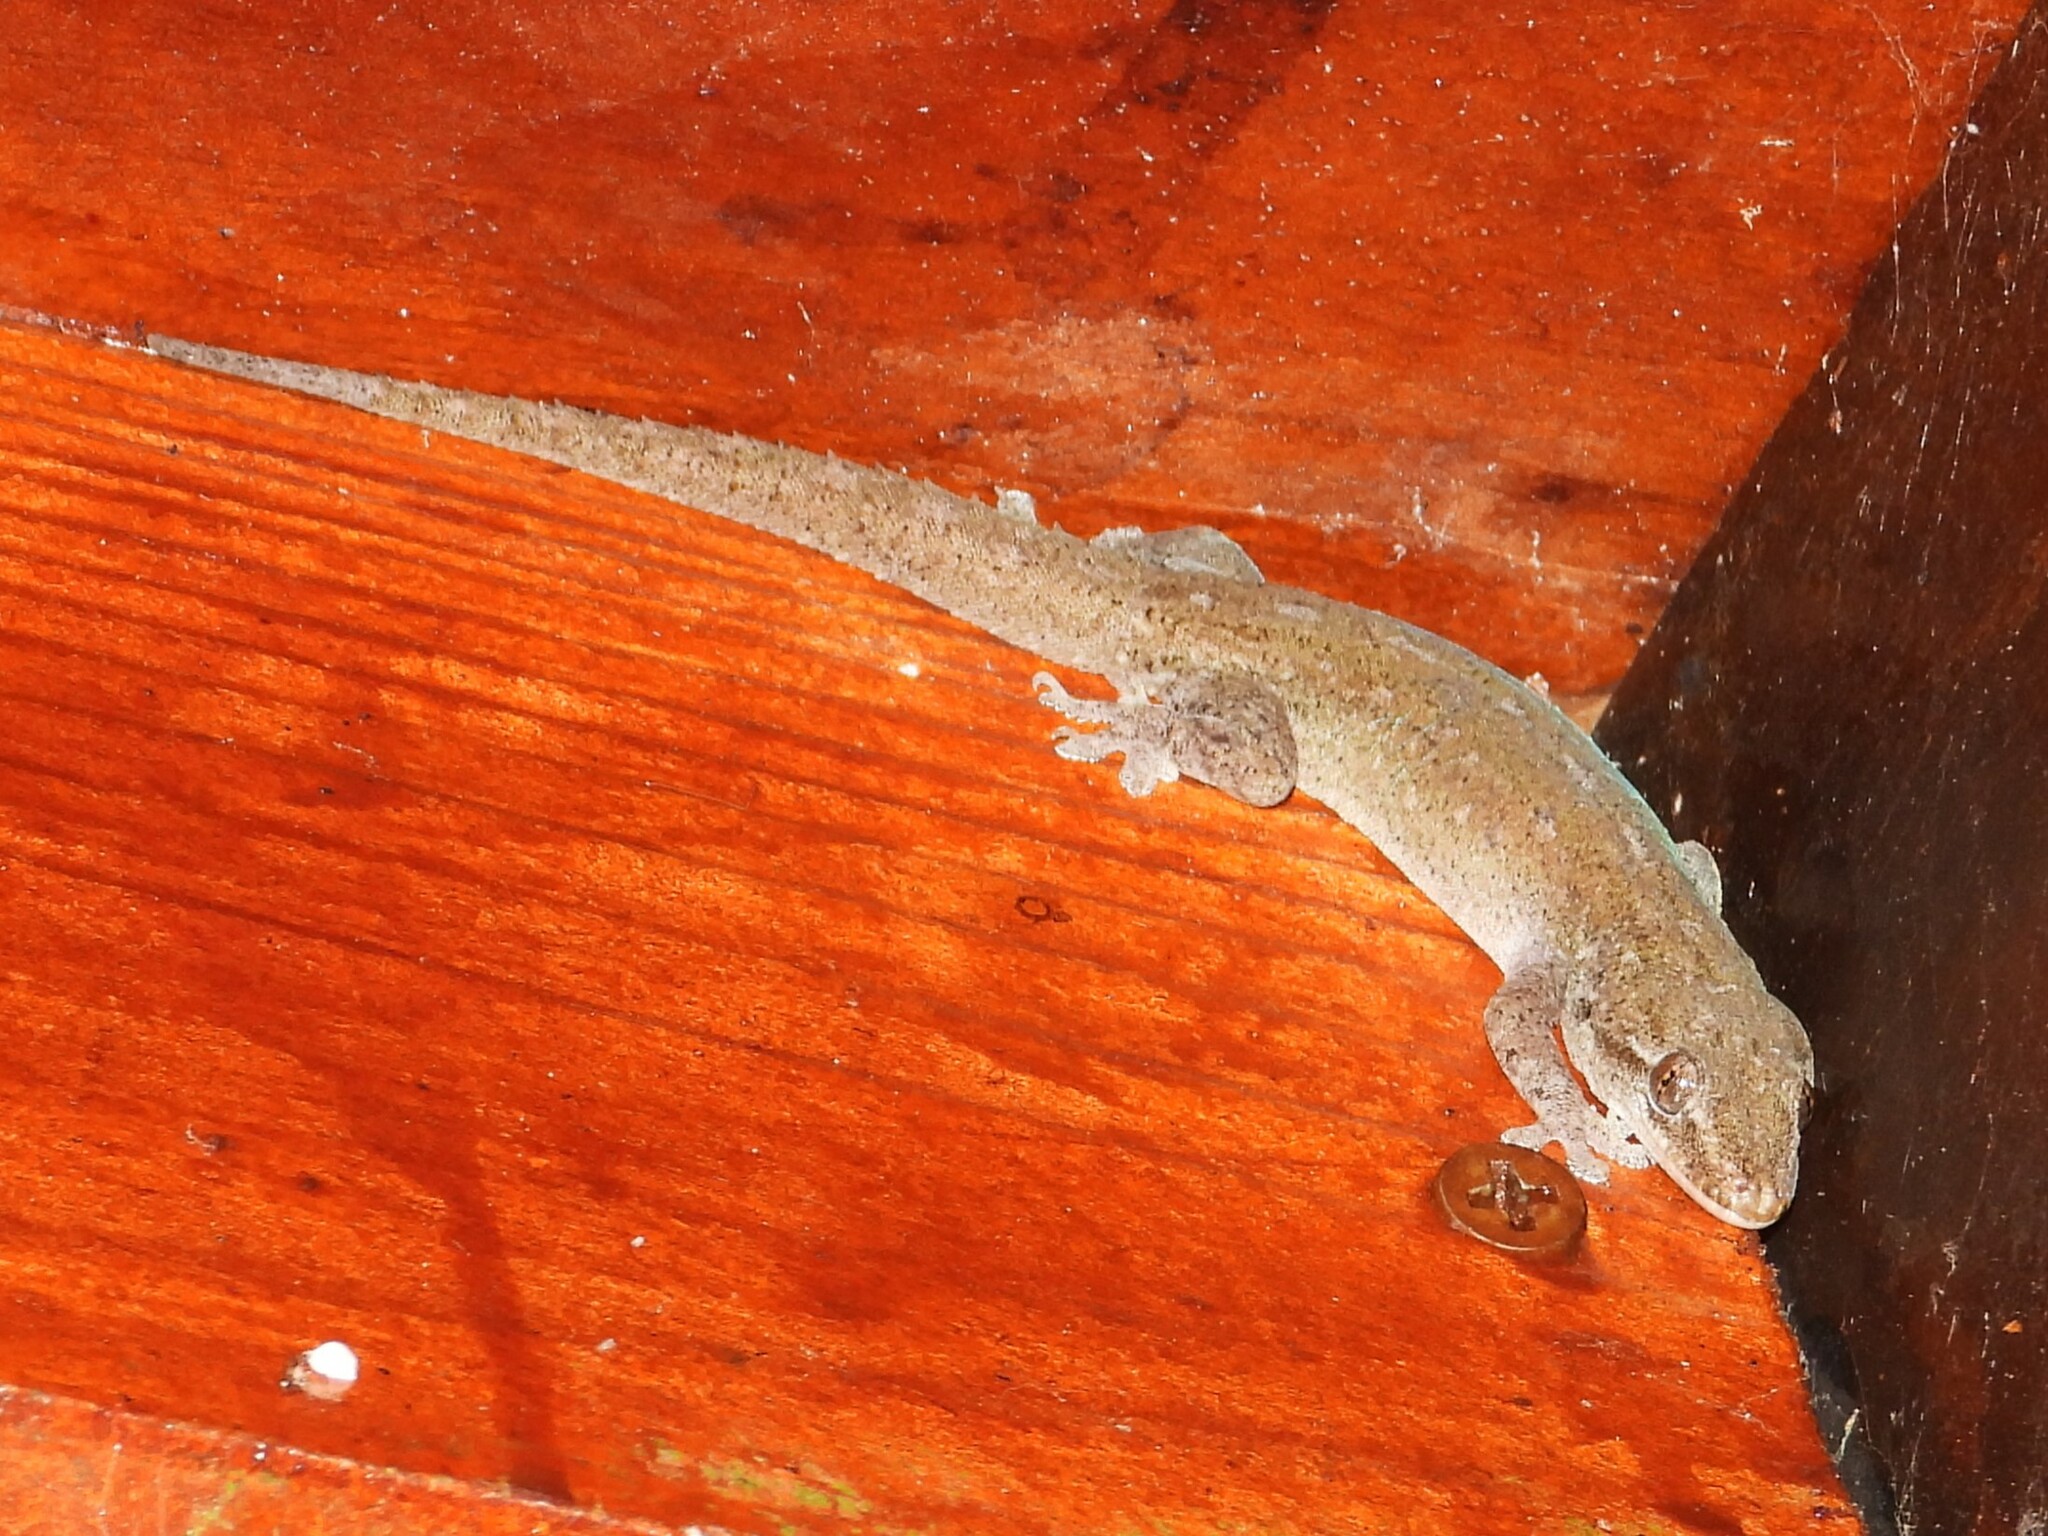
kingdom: Animalia
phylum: Chordata
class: Squamata
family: Gekkonidae
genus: Hemidactylus
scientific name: Hemidactylus frenatus
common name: Common house gecko
